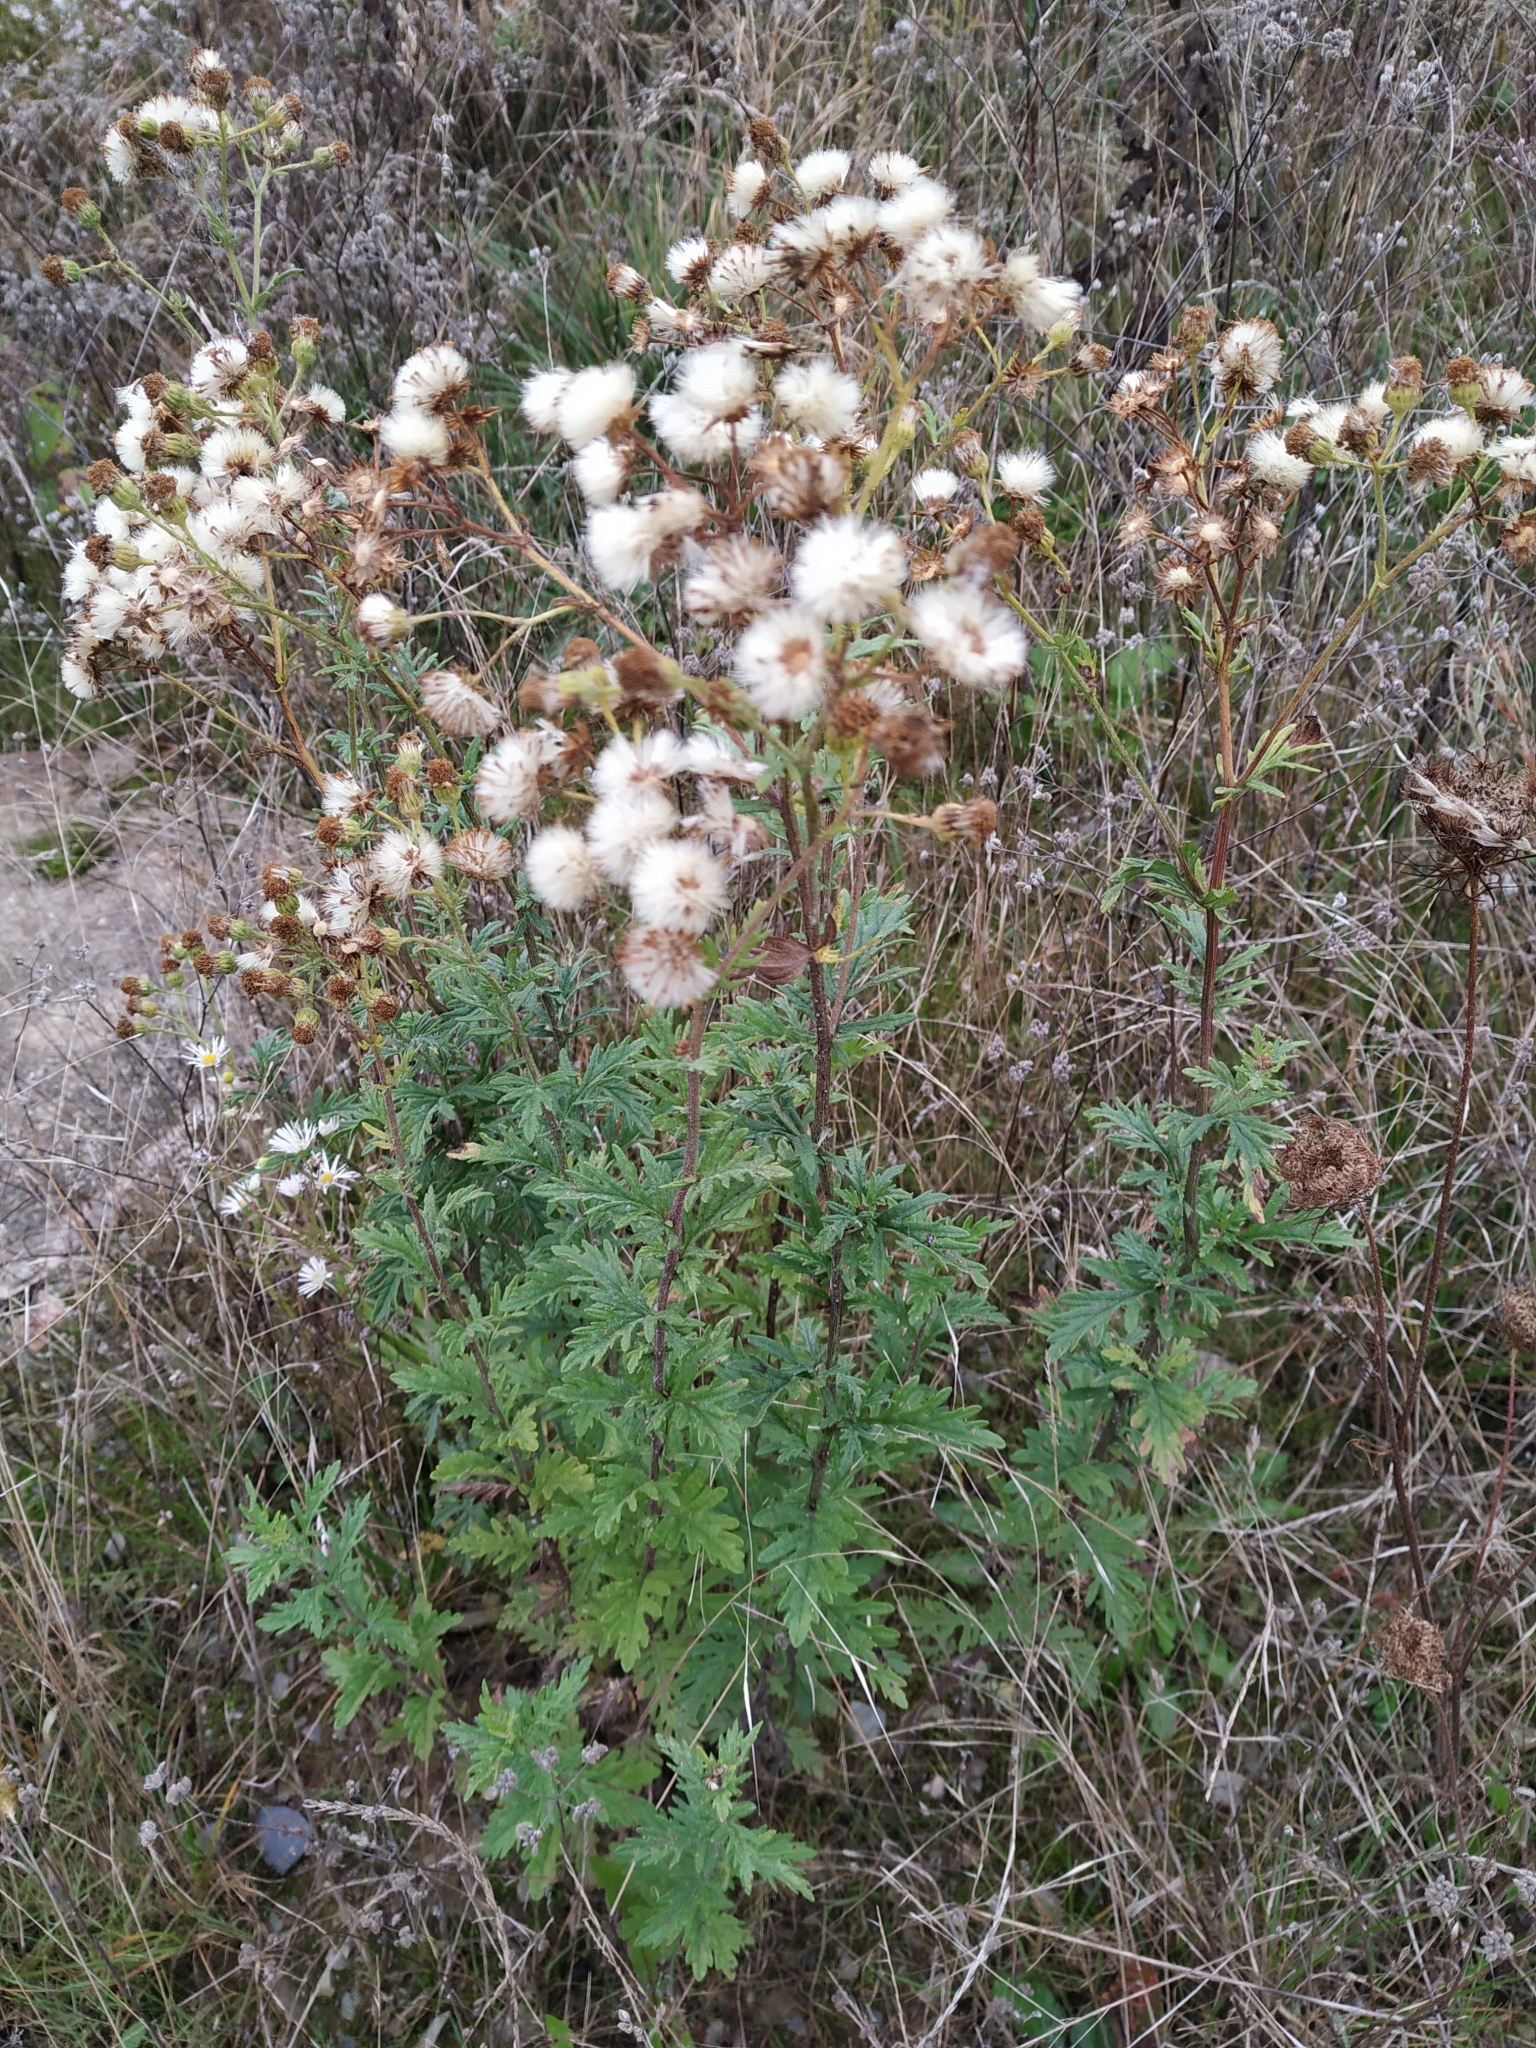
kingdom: Plantae
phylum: Tracheophyta
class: Magnoliopsida
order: Asterales
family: Asteraceae
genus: Jacobaea
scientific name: Jacobaea erucifolia
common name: Hoary ragwort
